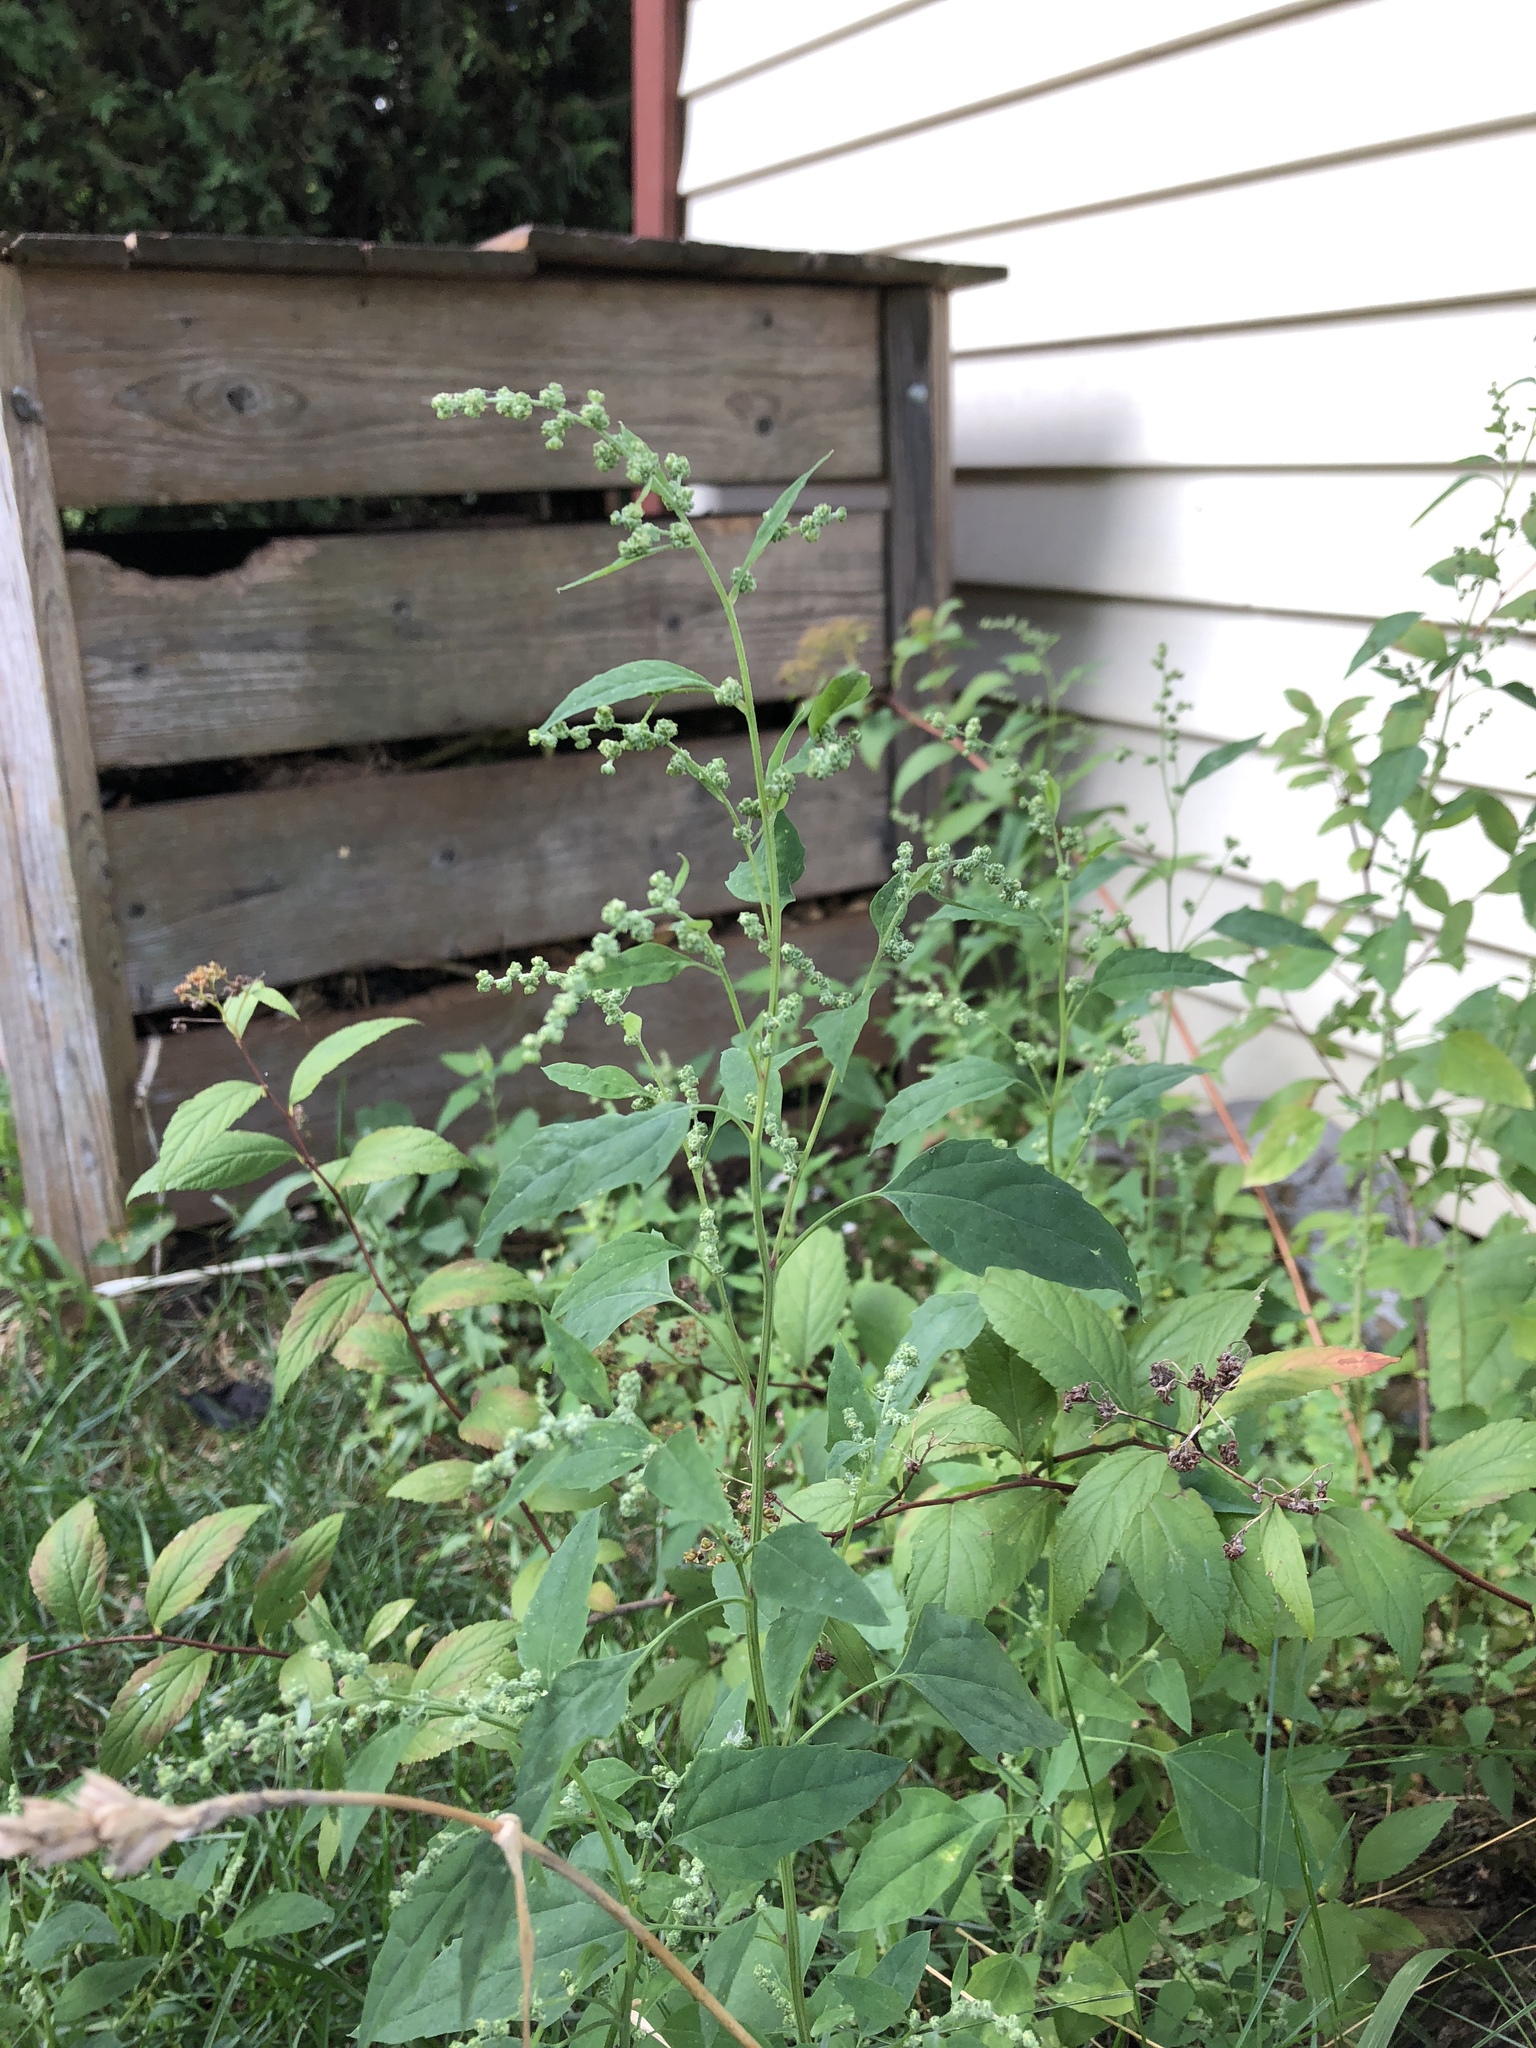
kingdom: Plantae
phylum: Tracheophyta
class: Magnoliopsida
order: Caryophyllales
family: Amaranthaceae
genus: Chenopodium
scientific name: Chenopodium album
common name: Fat-hen
